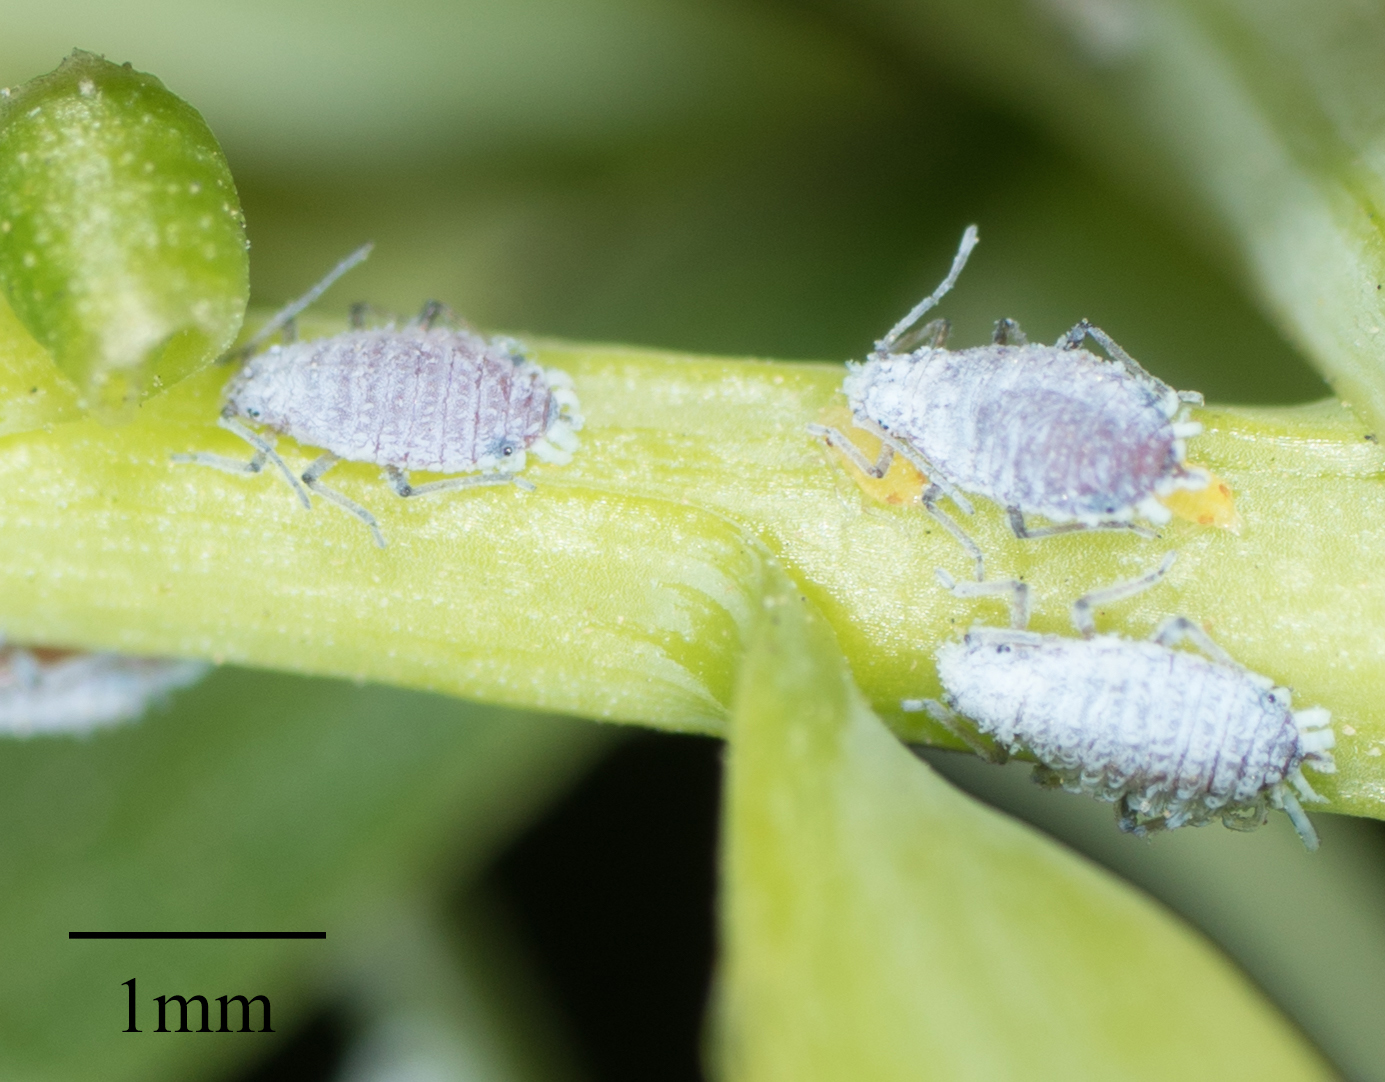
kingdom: Animalia
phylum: Arthropoda
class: Insecta
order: Hemiptera
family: Aphididae
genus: Neophyllaphis
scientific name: Neophyllaphis varicolor
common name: Podocarpus aphid
